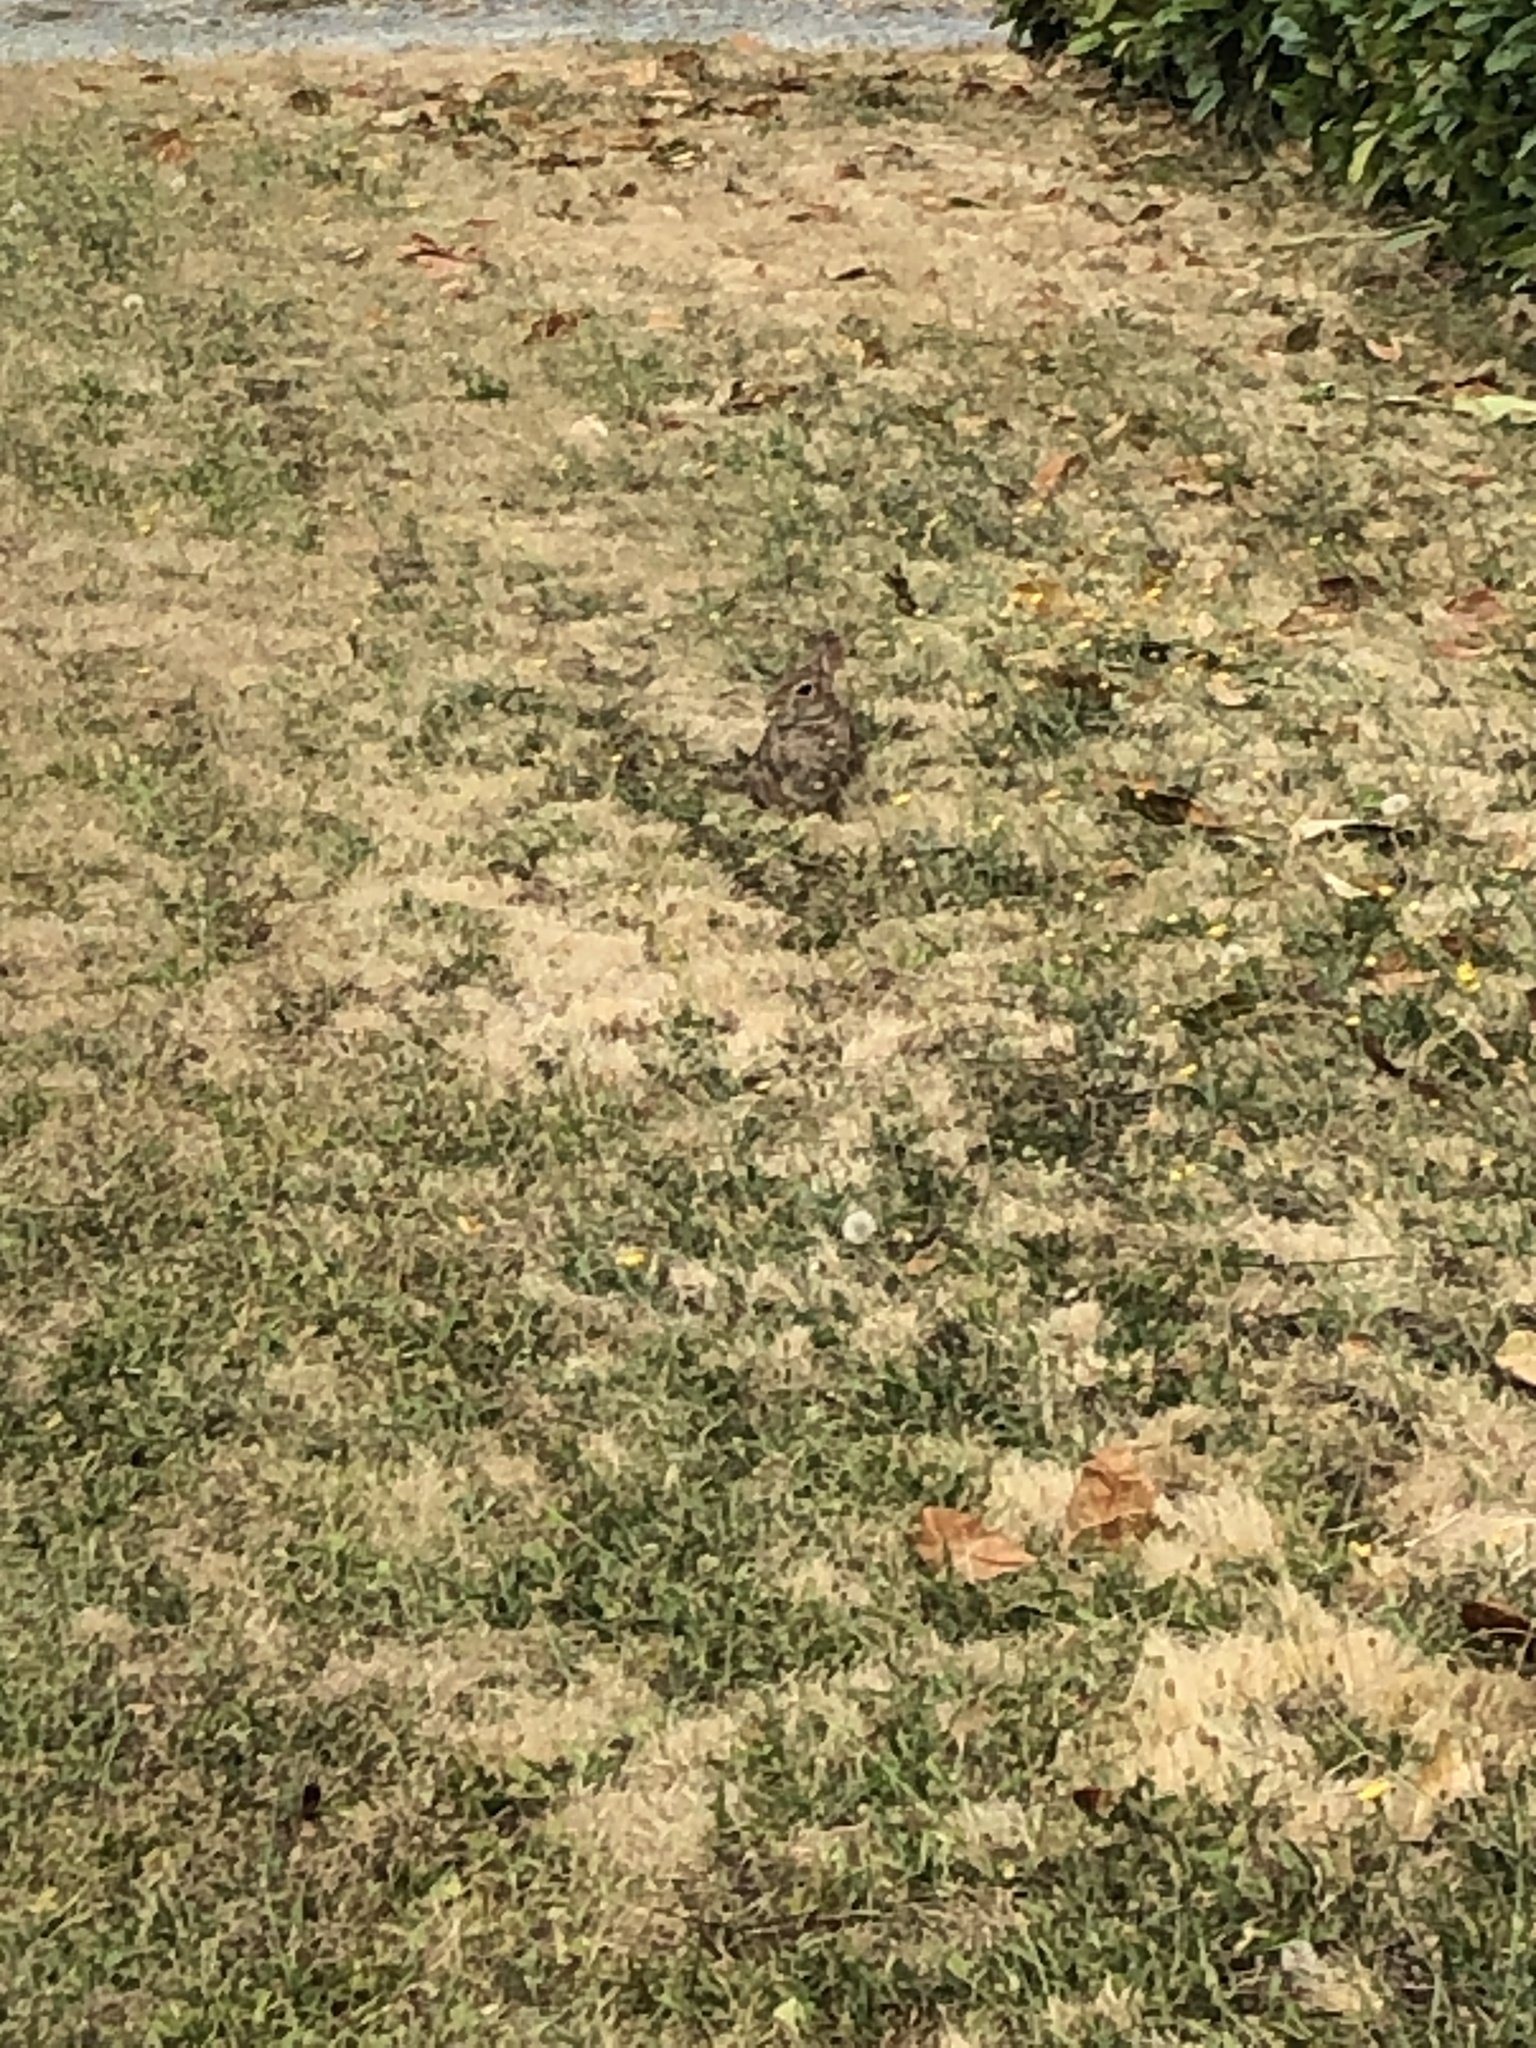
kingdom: Animalia
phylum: Chordata
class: Mammalia
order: Lagomorpha
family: Leporidae
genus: Sylvilagus
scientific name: Sylvilagus floridanus
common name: Eastern cottontail
